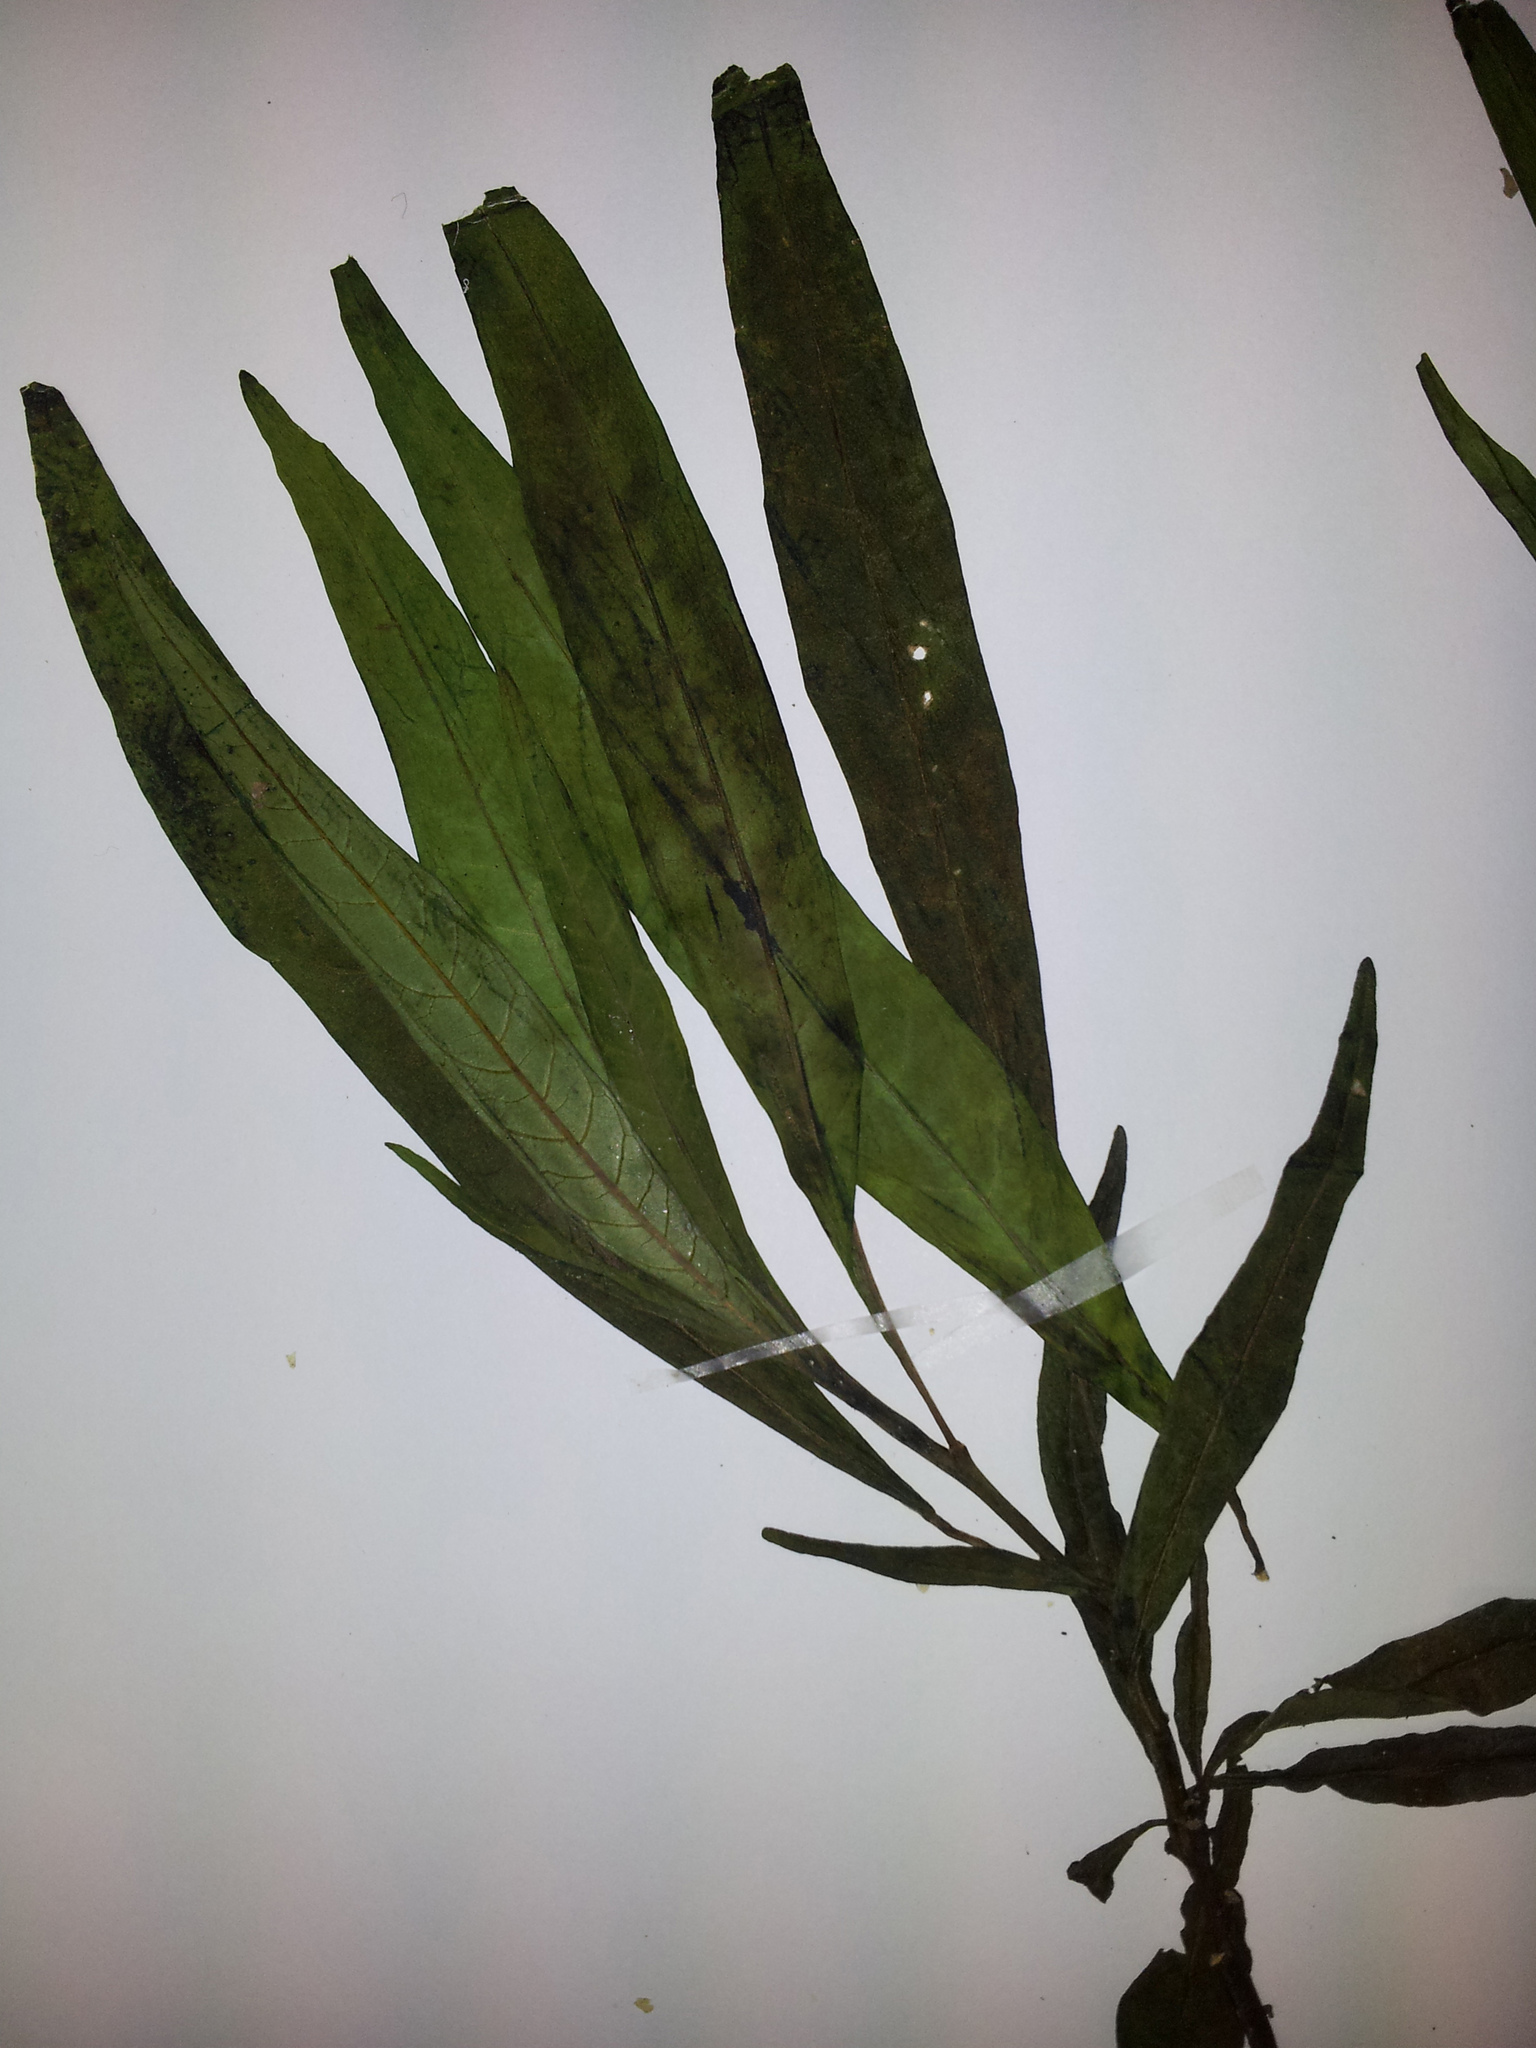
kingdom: Plantae
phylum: Tracheophyta
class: Magnoliopsida
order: Solanales
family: Solanaceae
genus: Solanum
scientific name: Solanum aviculare
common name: New zealand nightshade
